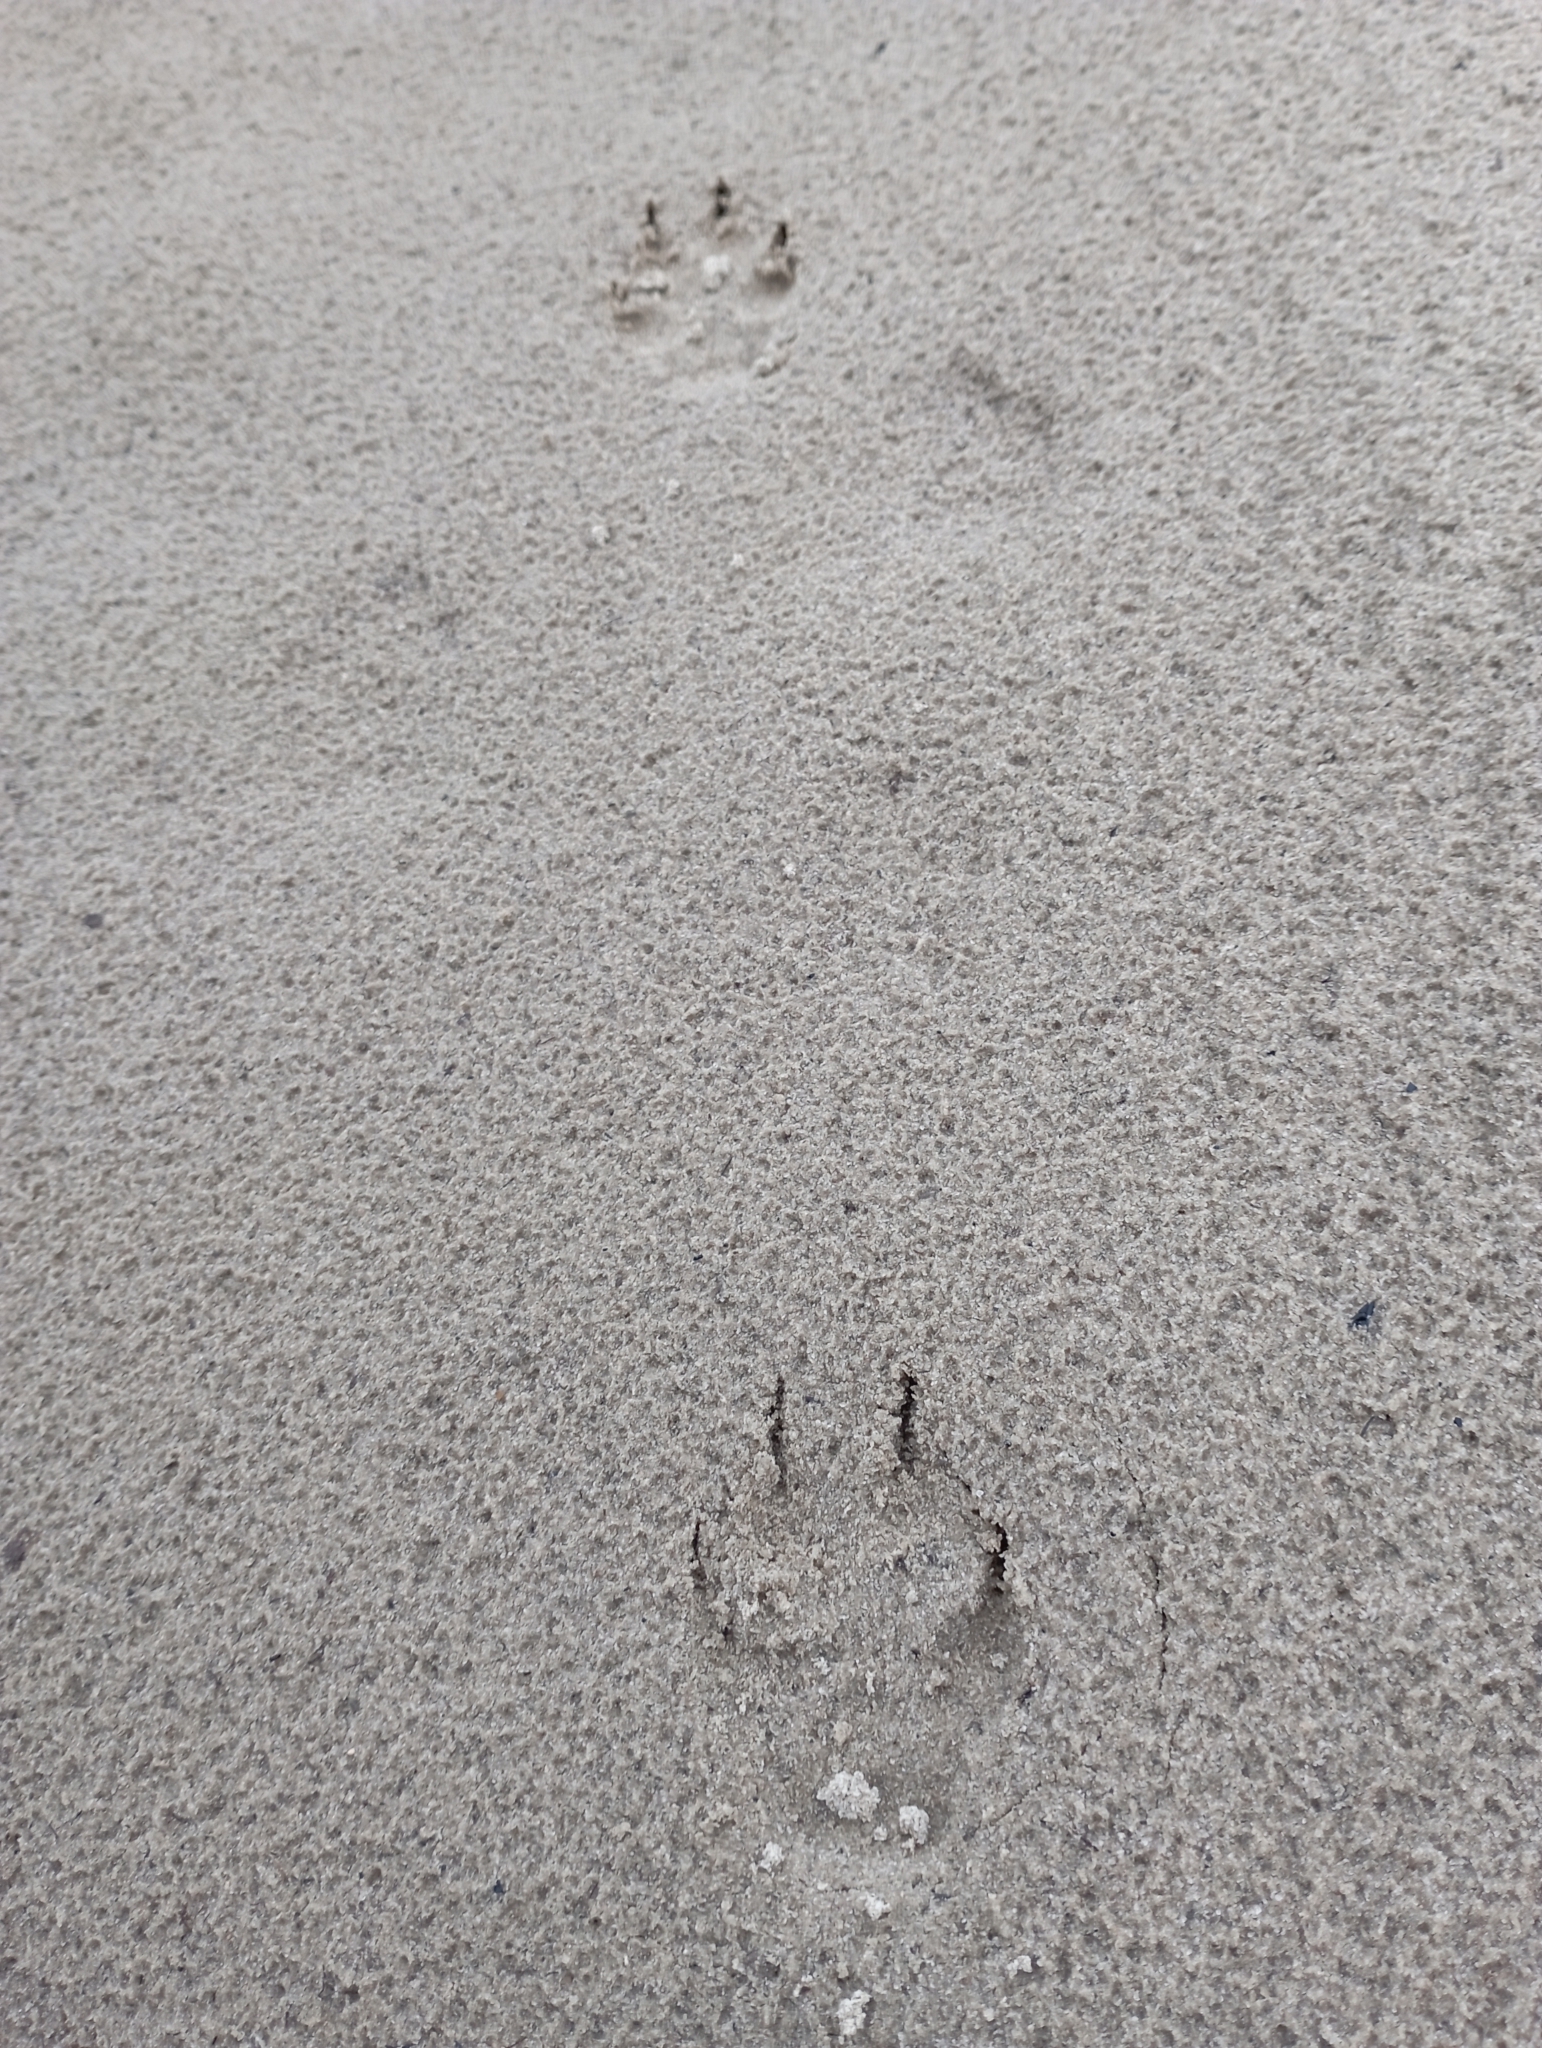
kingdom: Animalia
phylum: Chordata
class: Mammalia
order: Carnivora
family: Canidae
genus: Vulpes
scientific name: Vulpes lagopus
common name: Arctic fox
